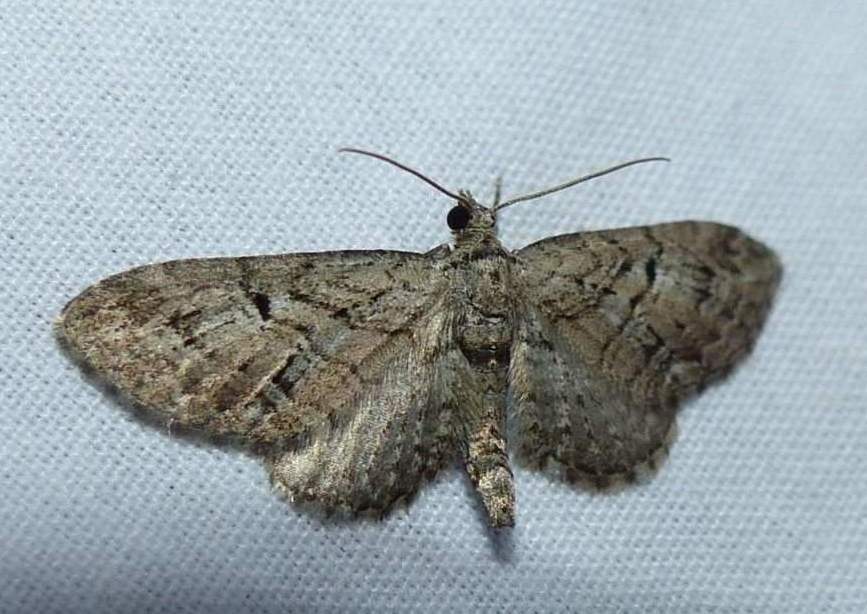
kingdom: Animalia
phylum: Arthropoda
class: Insecta
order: Lepidoptera
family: Geometridae
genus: Eupithecia
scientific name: Eupithecia interruptofasciata
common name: Juniper looper moth
